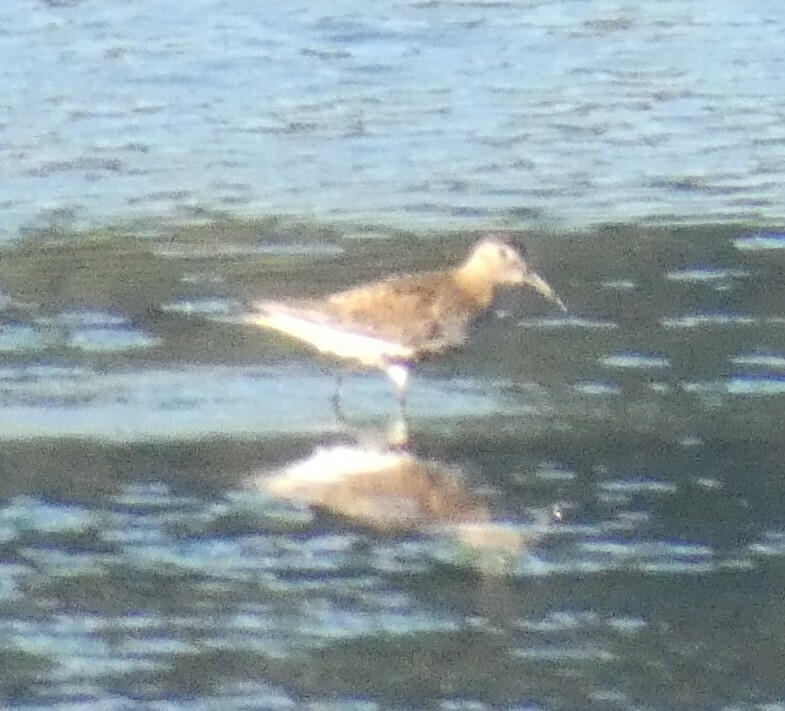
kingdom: Animalia
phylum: Chordata
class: Aves
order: Charadriiformes
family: Scolopacidae
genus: Calidris
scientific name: Calidris alpina
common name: Dunlin
